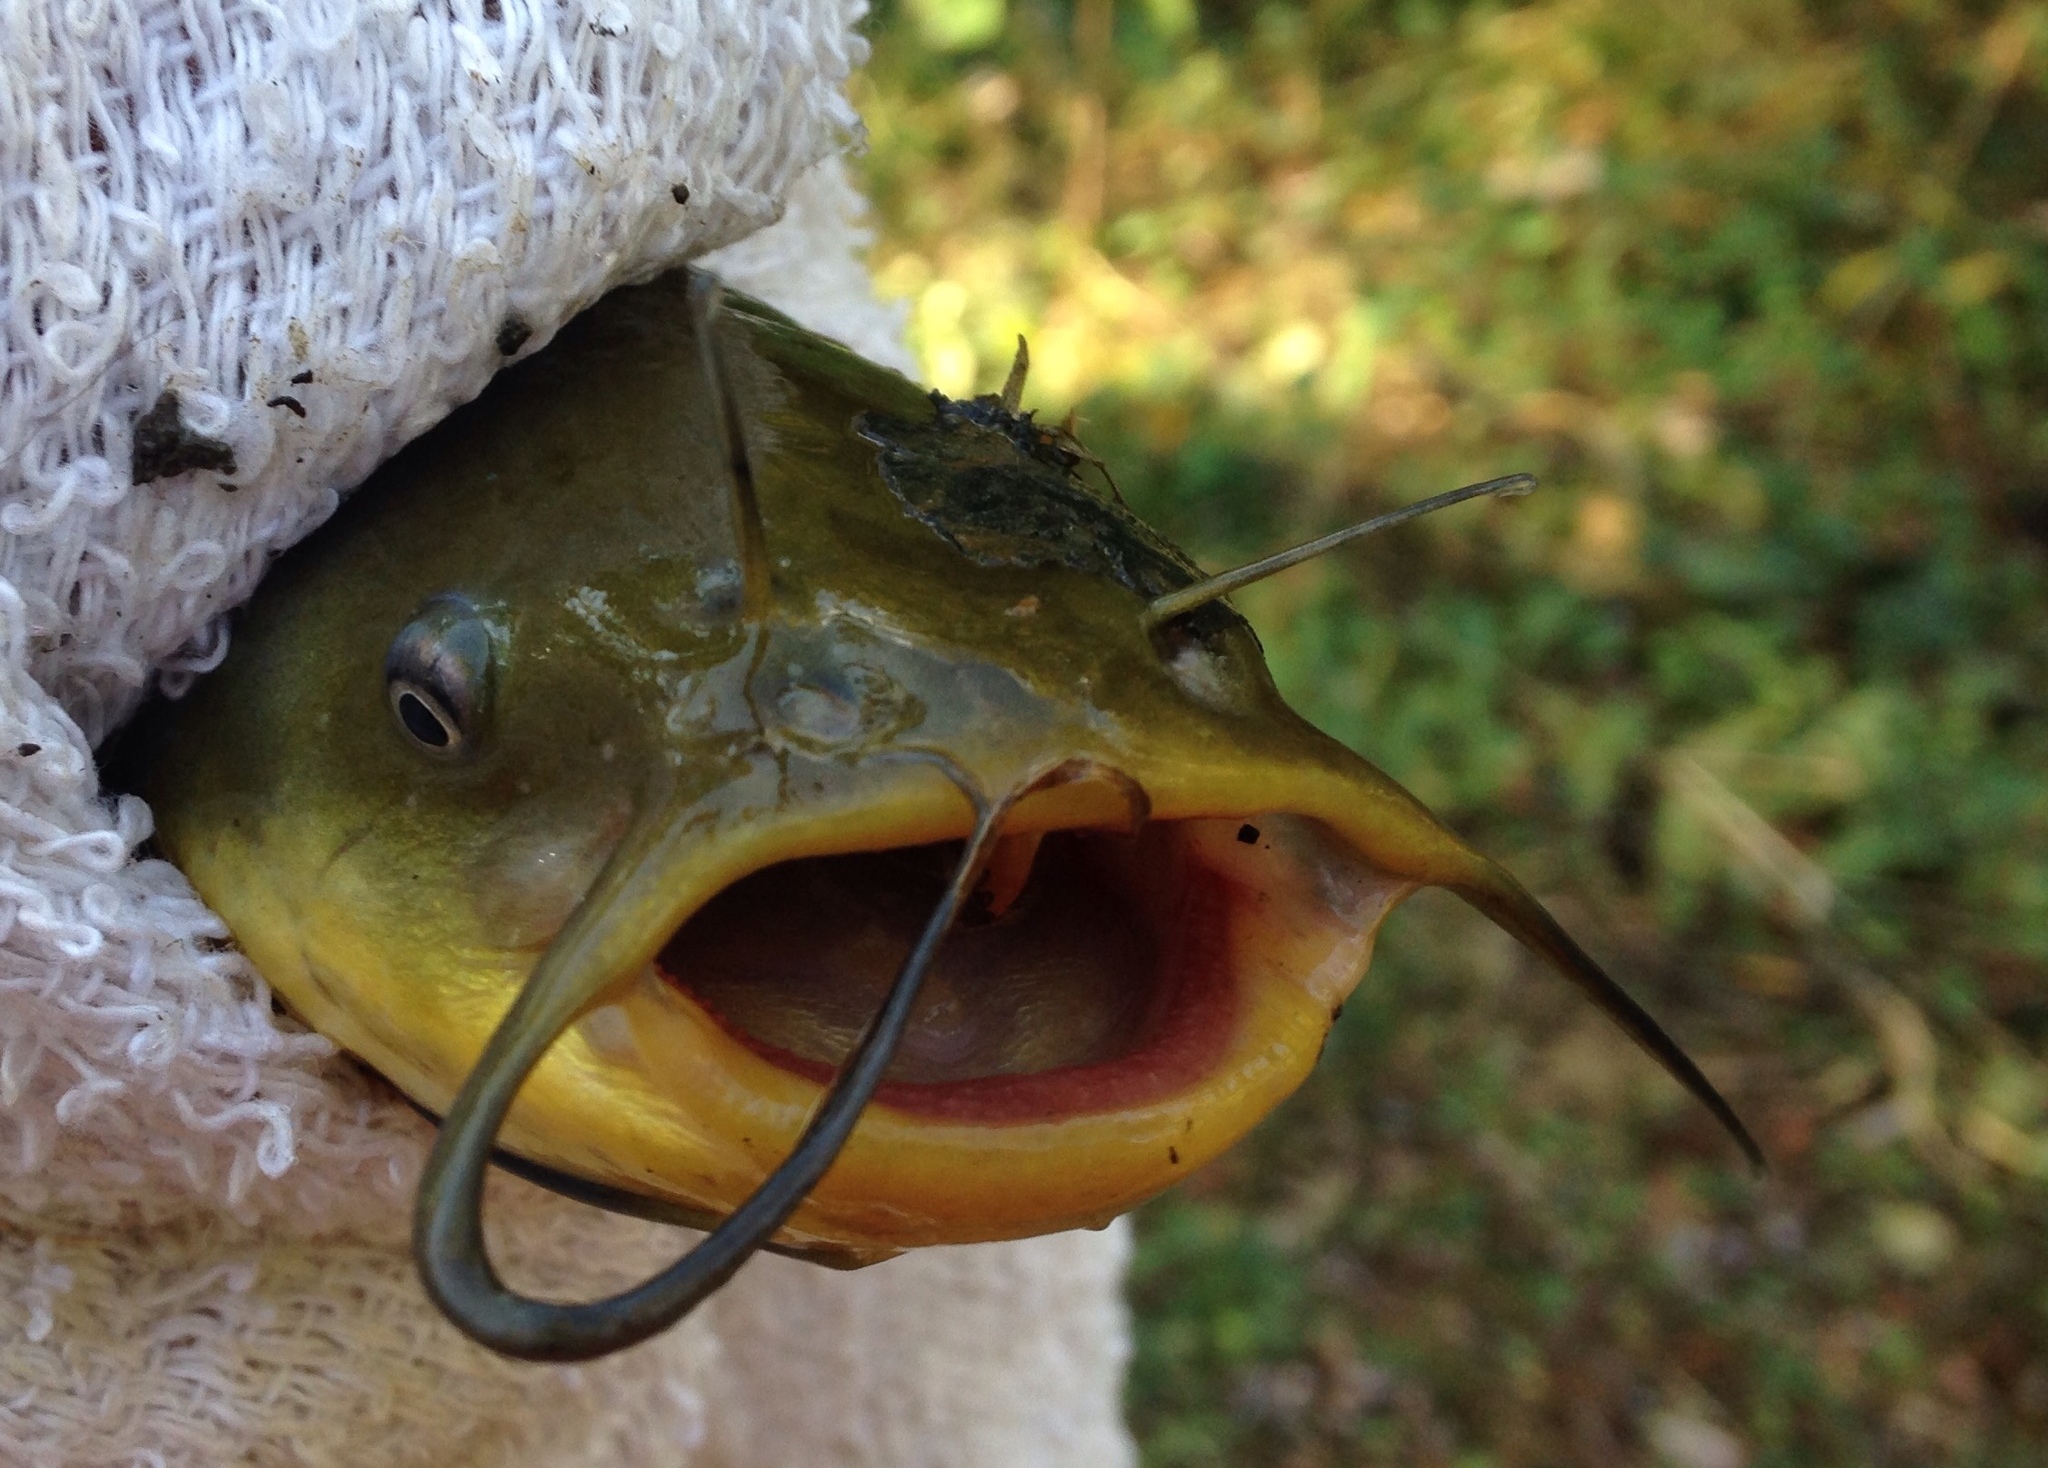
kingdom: Animalia
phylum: Chordata
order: Siluriformes
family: Ictaluridae
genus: Ameiurus
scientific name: Ameiurus melas
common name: Black bullhead
